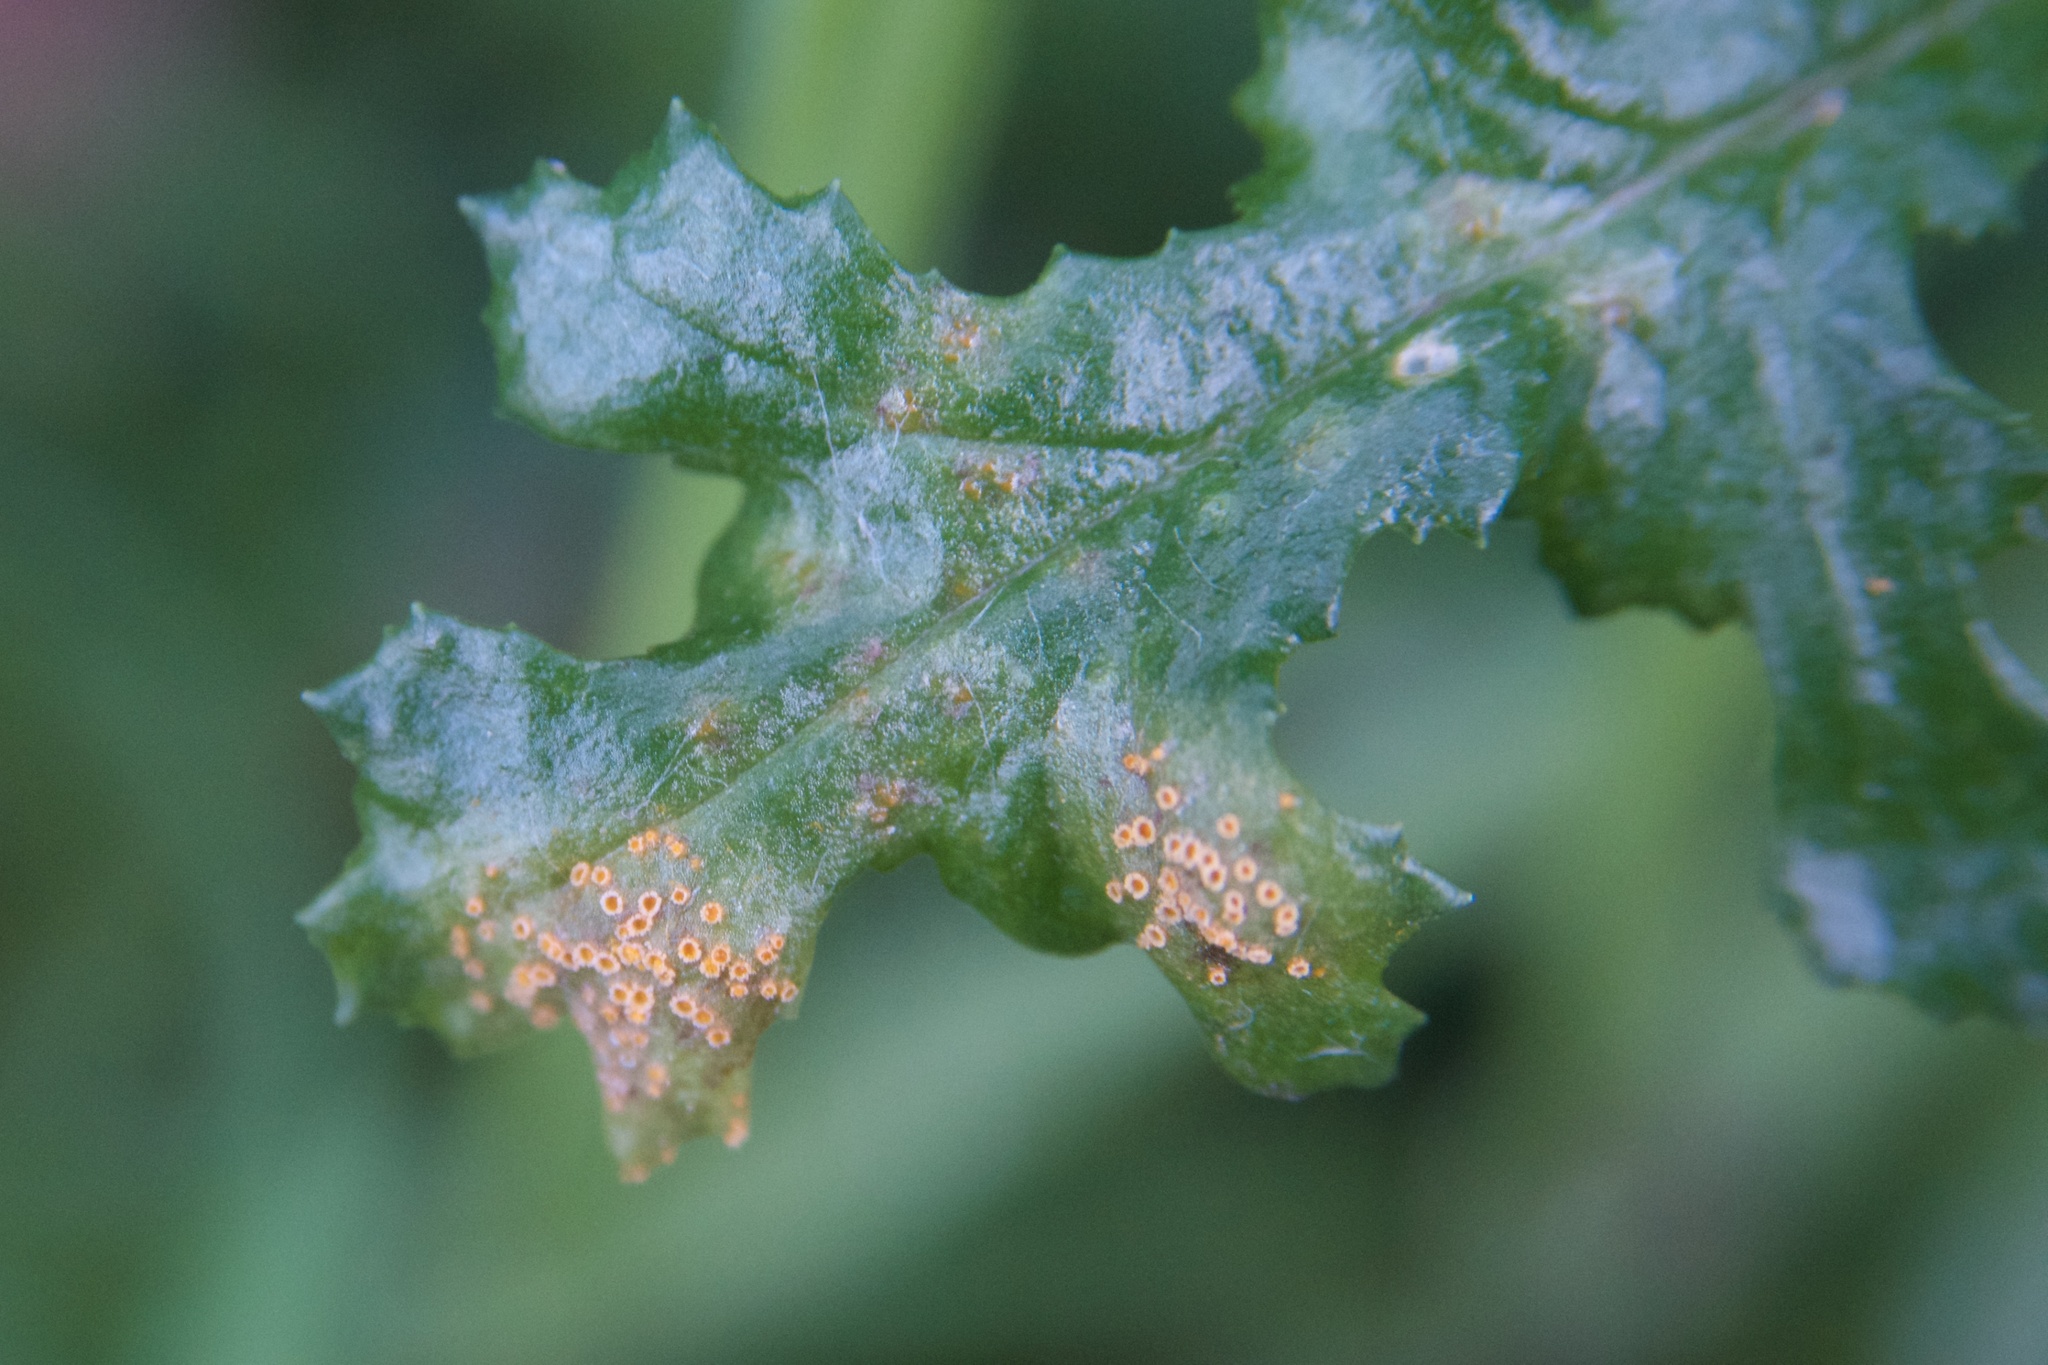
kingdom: Fungi
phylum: Basidiomycota
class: Pucciniomycetes
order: Pucciniales
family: Pucciniaceae
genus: Puccinia
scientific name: Puccinia lagenophorae
